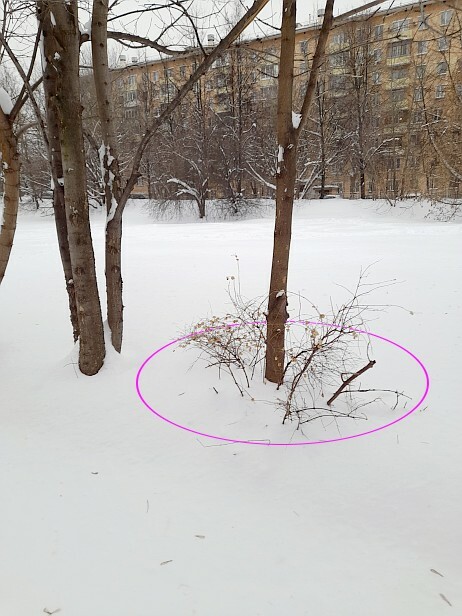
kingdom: Plantae
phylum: Tracheophyta
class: Magnoliopsida
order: Dipsacales
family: Caprifoliaceae
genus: Symphoricarpos
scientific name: Symphoricarpos albus
